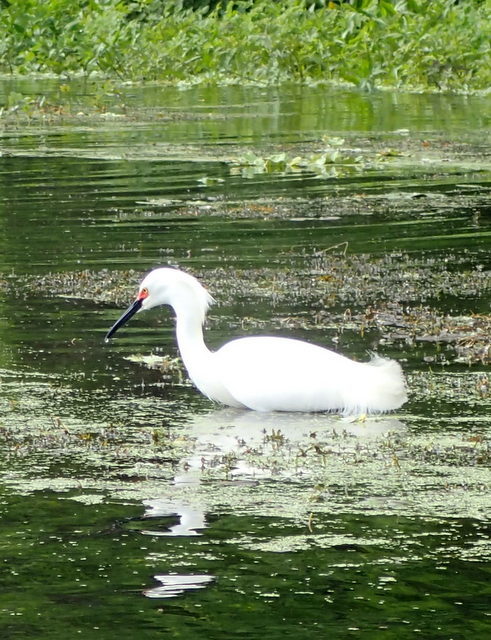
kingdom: Animalia
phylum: Chordata
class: Aves
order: Pelecaniformes
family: Ardeidae
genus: Egretta
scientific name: Egretta thula
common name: Snowy egret
